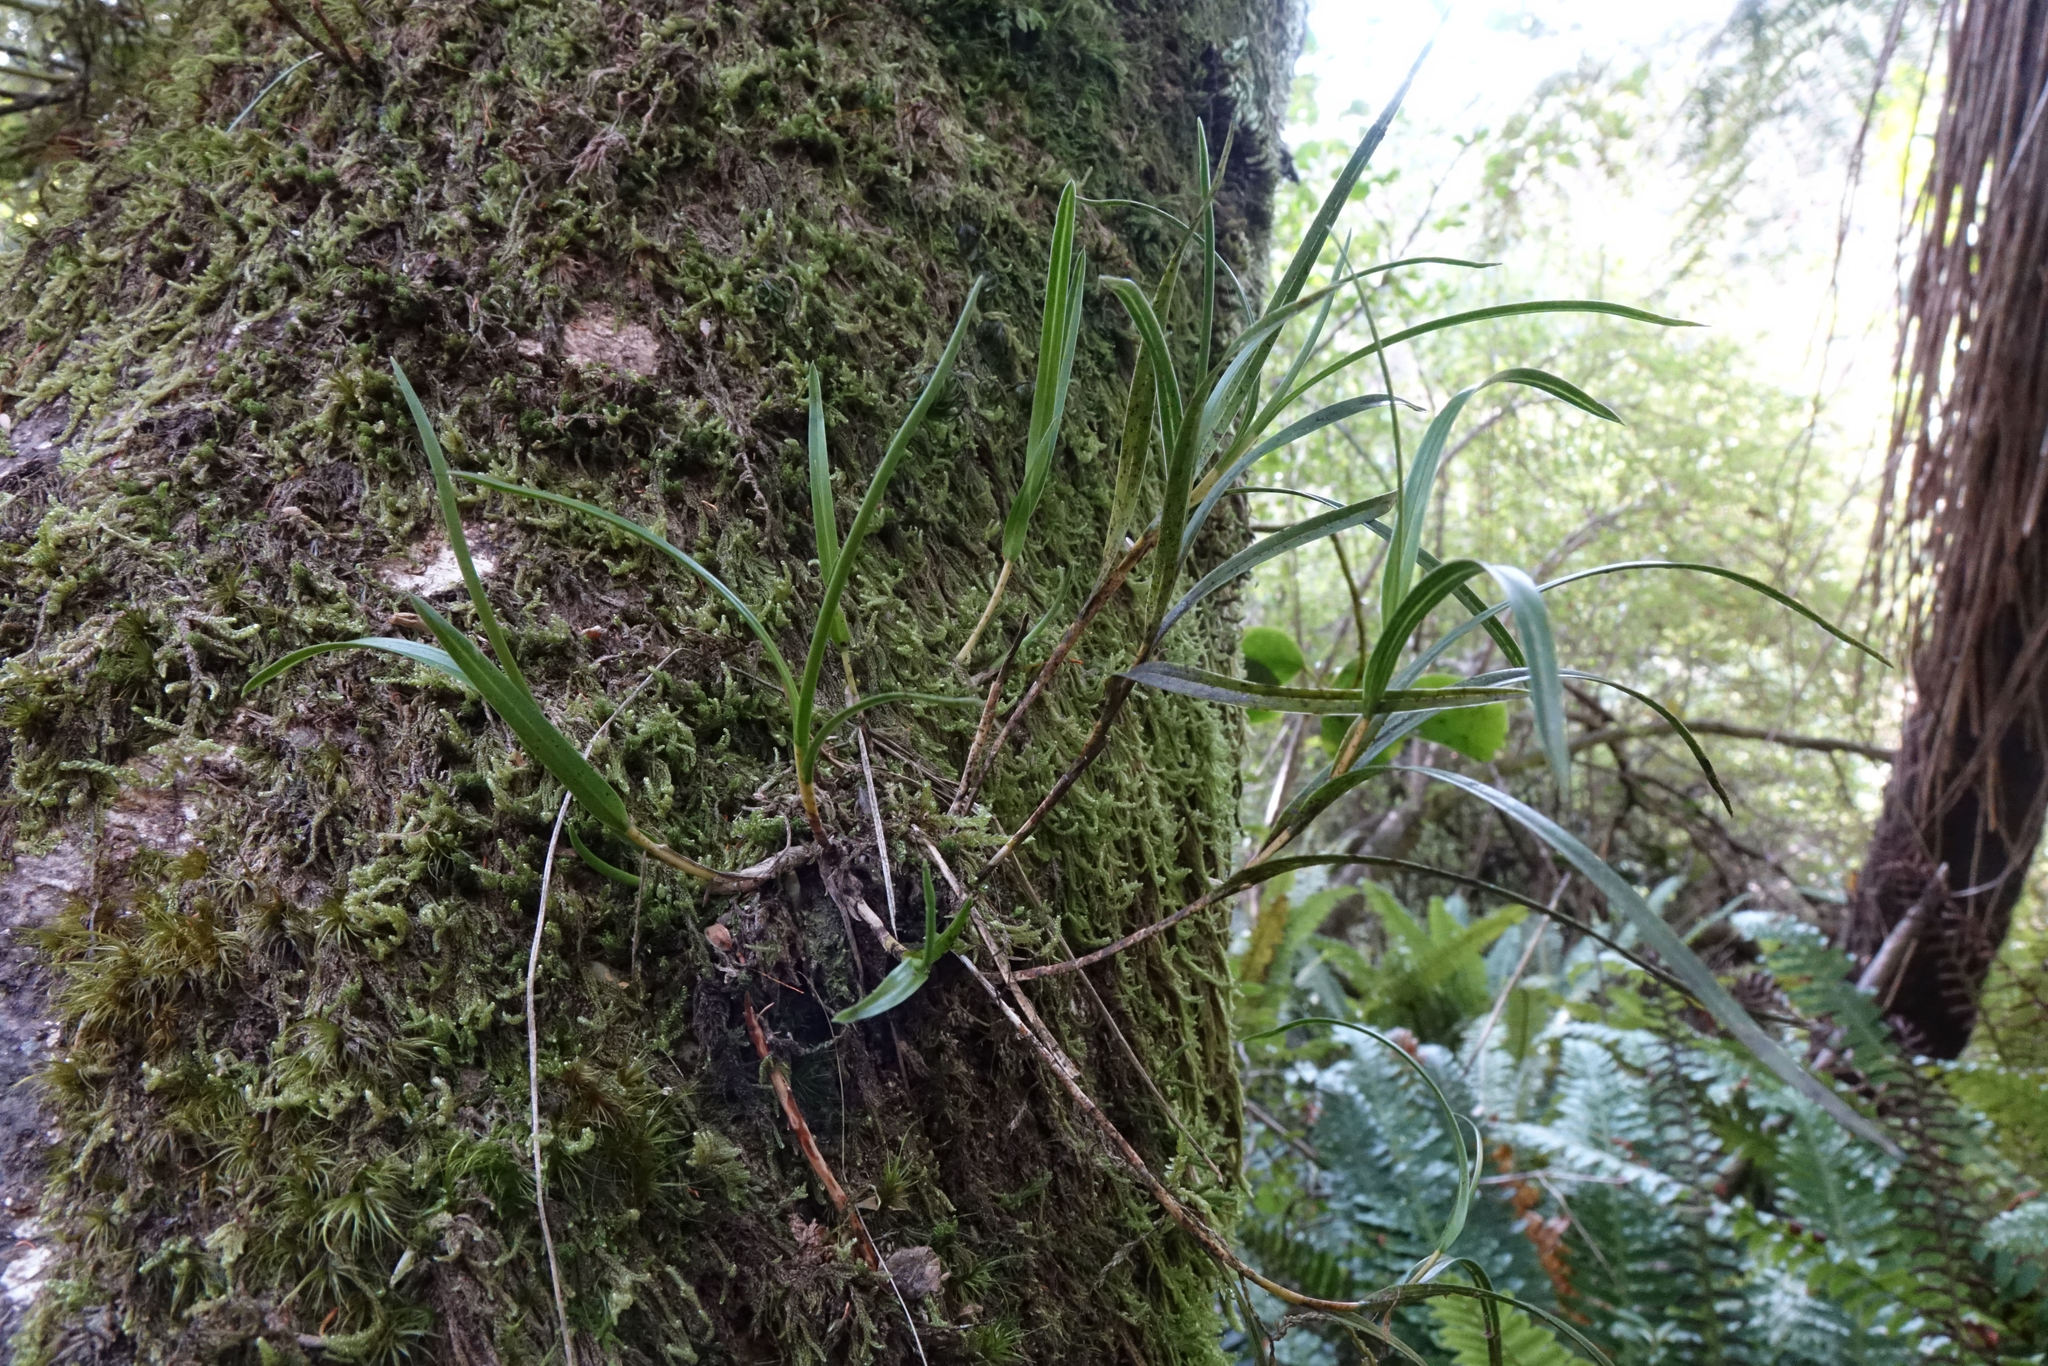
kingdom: Plantae
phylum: Tracheophyta
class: Liliopsida
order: Asparagales
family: Orchidaceae
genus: Earina
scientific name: Earina mucronata
